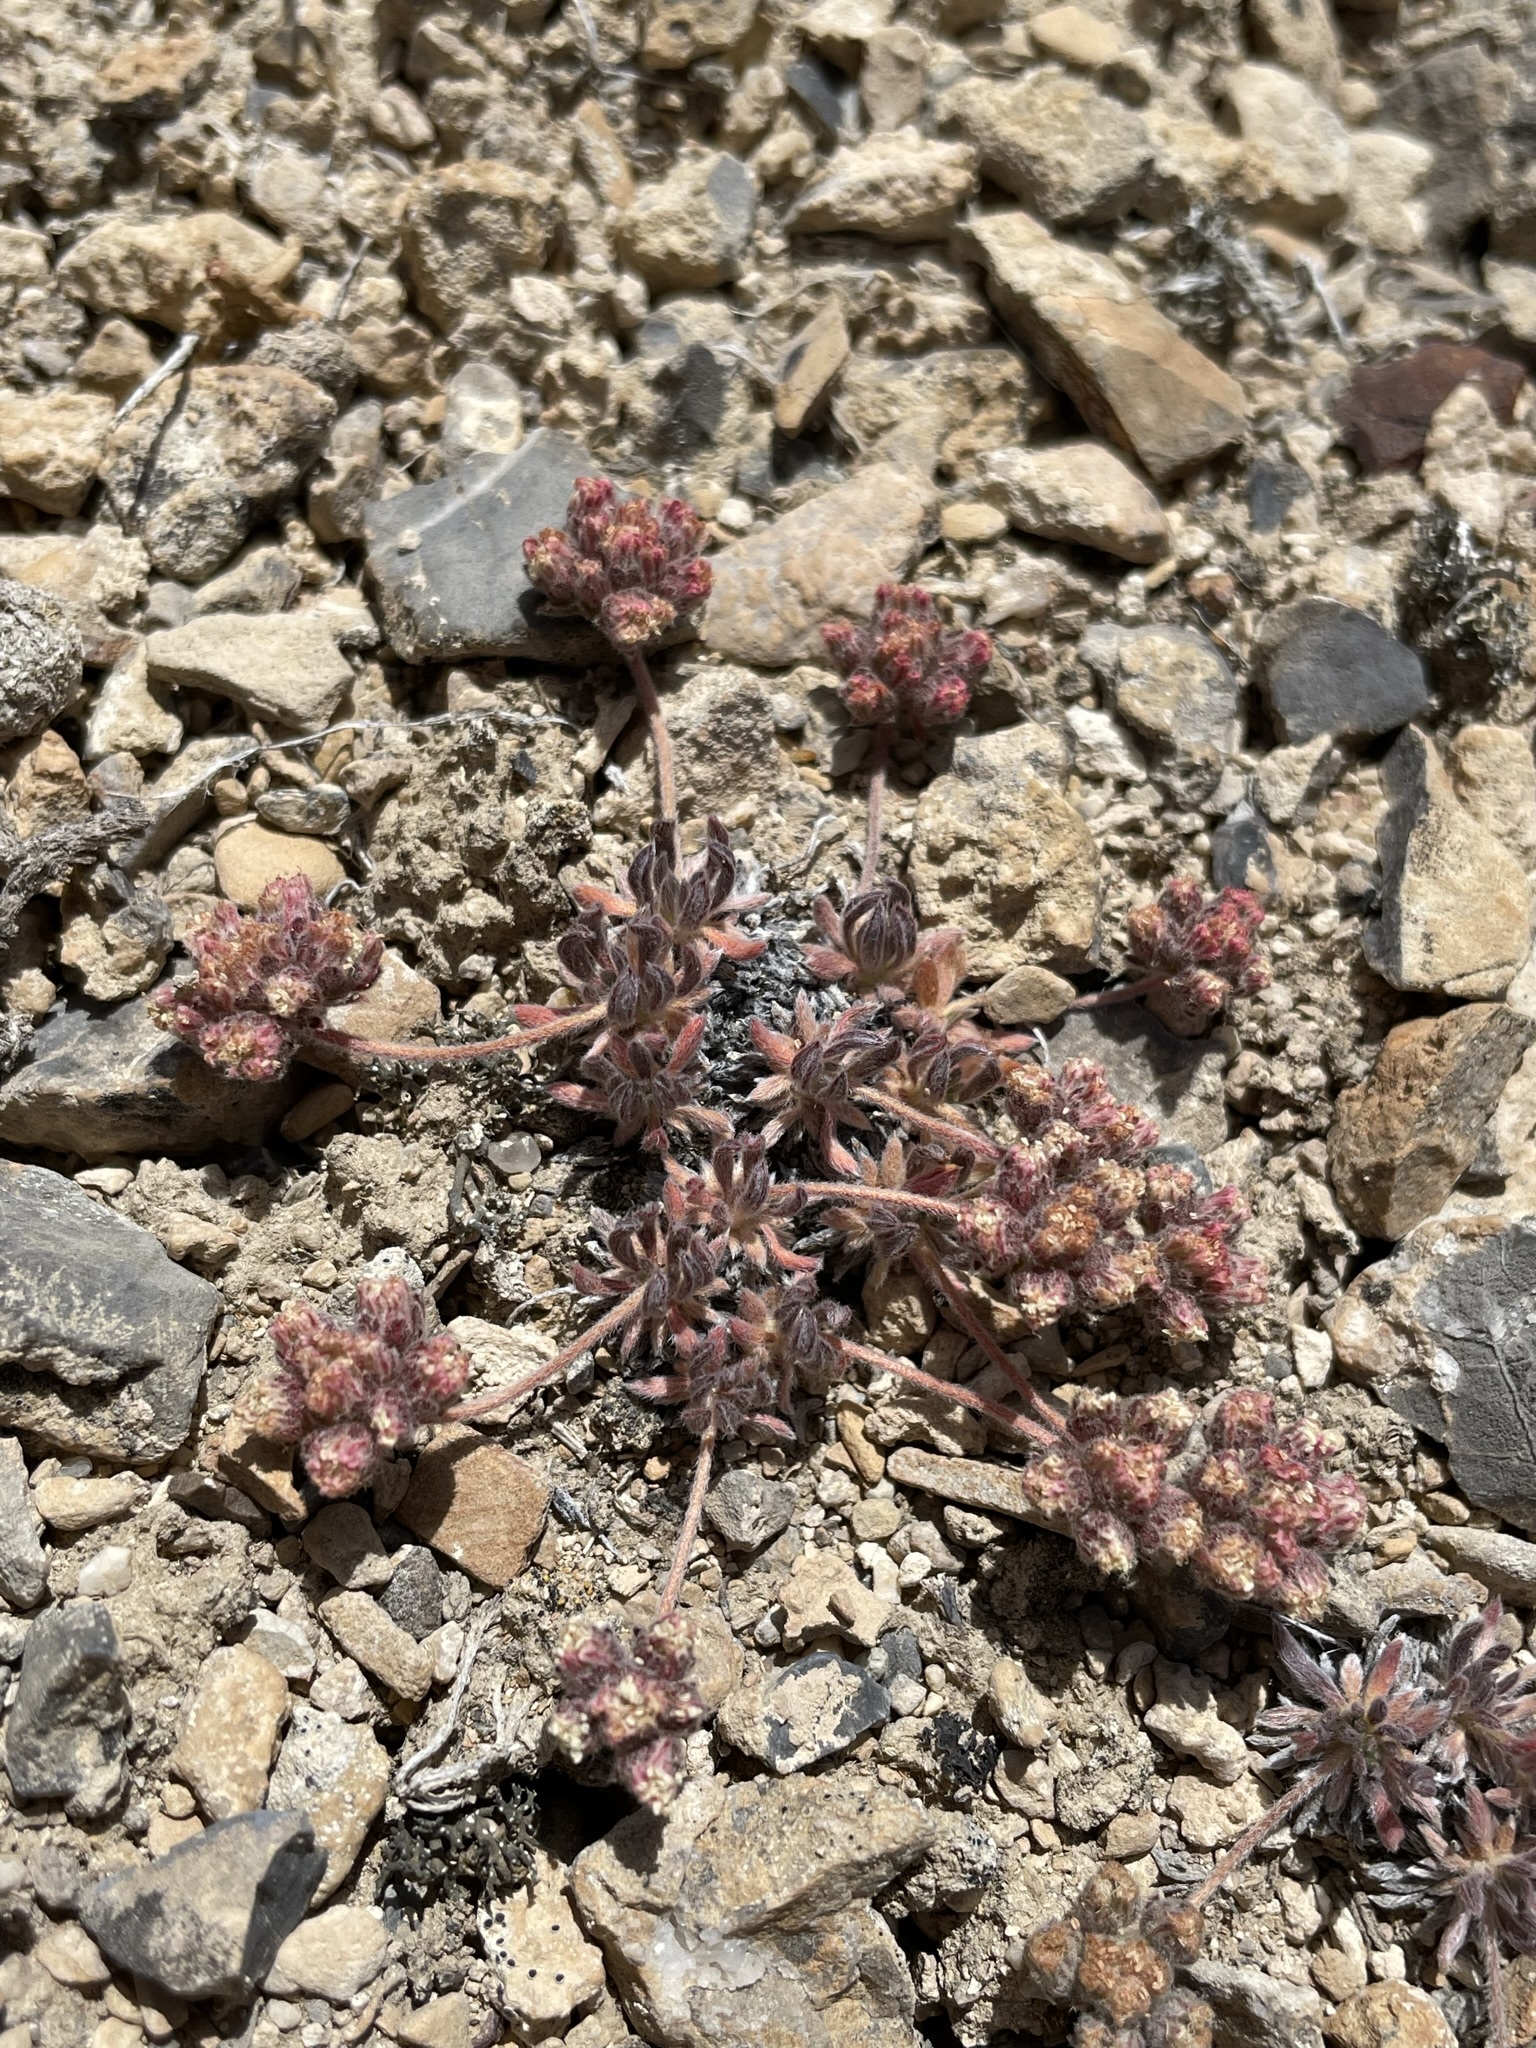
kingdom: Plantae
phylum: Tracheophyta
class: Magnoliopsida
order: Caryophyllales
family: Polygonaceae
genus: Eriogonum
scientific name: Eriogonum villiflorum
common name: Gray's wild buckwheat
